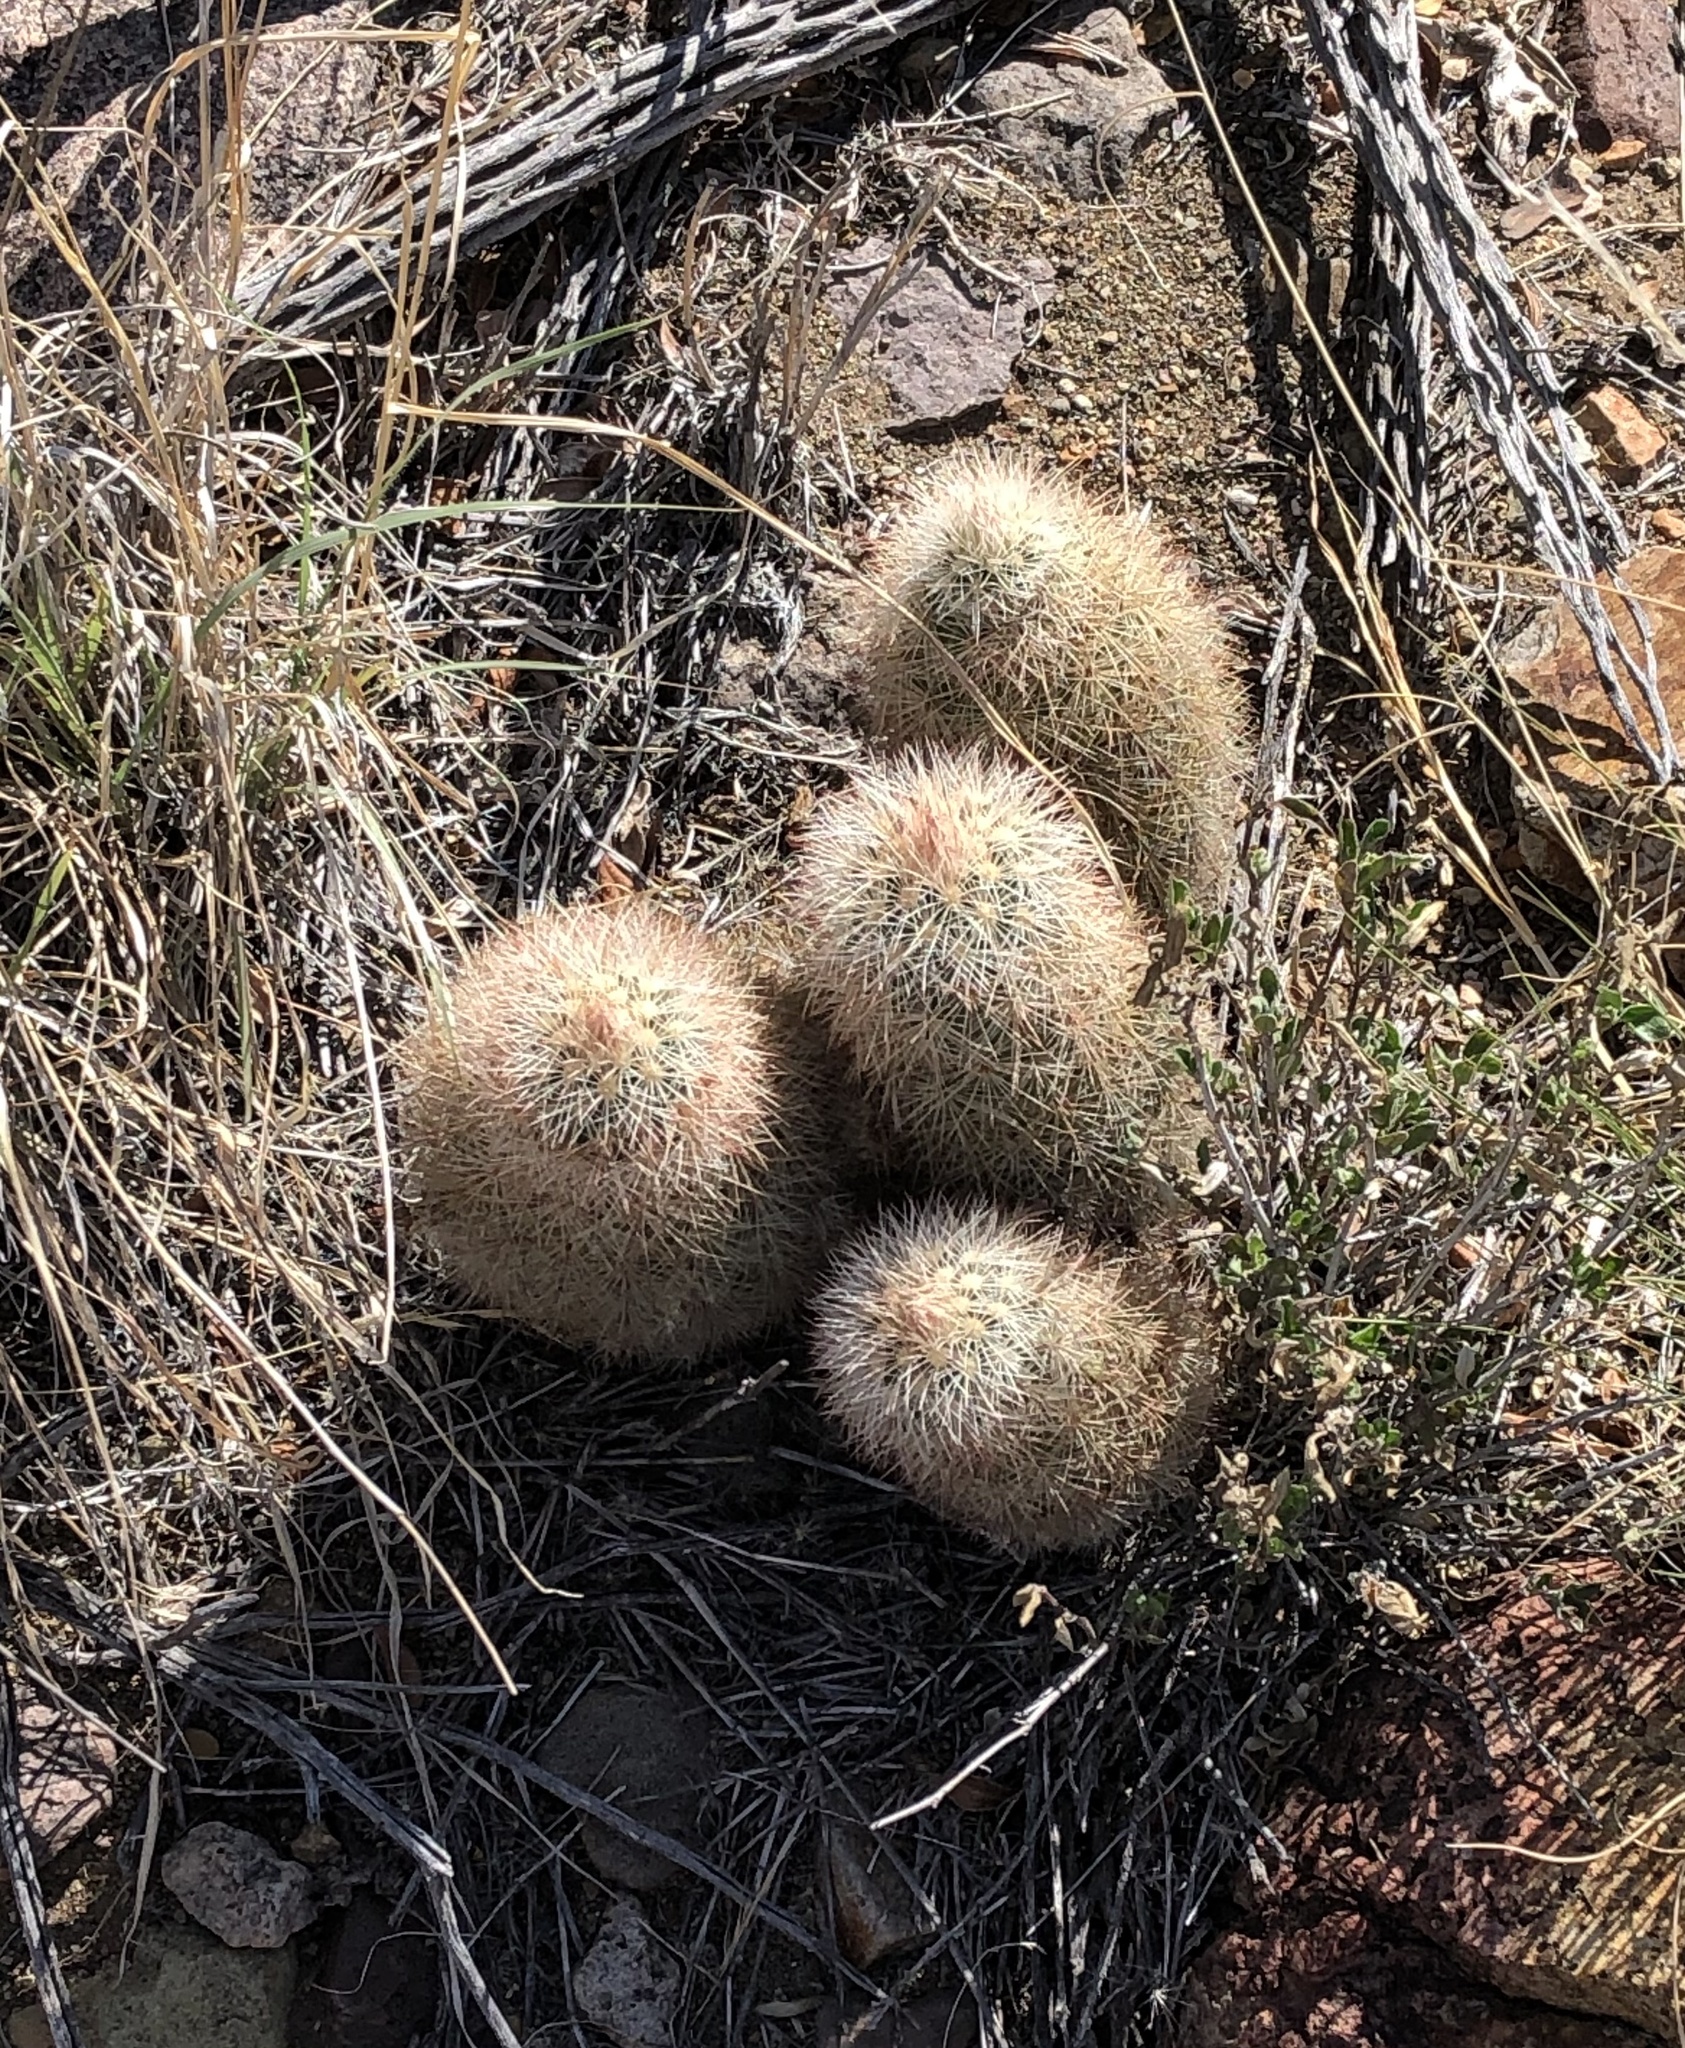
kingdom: Plantae
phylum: Tracheophyta
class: Magnoliopsida
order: Caryophyllales
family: Cactaceae
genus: Echinocereus
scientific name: Echinocereus dasyacanthus
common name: Spiny hedgehog cactus
